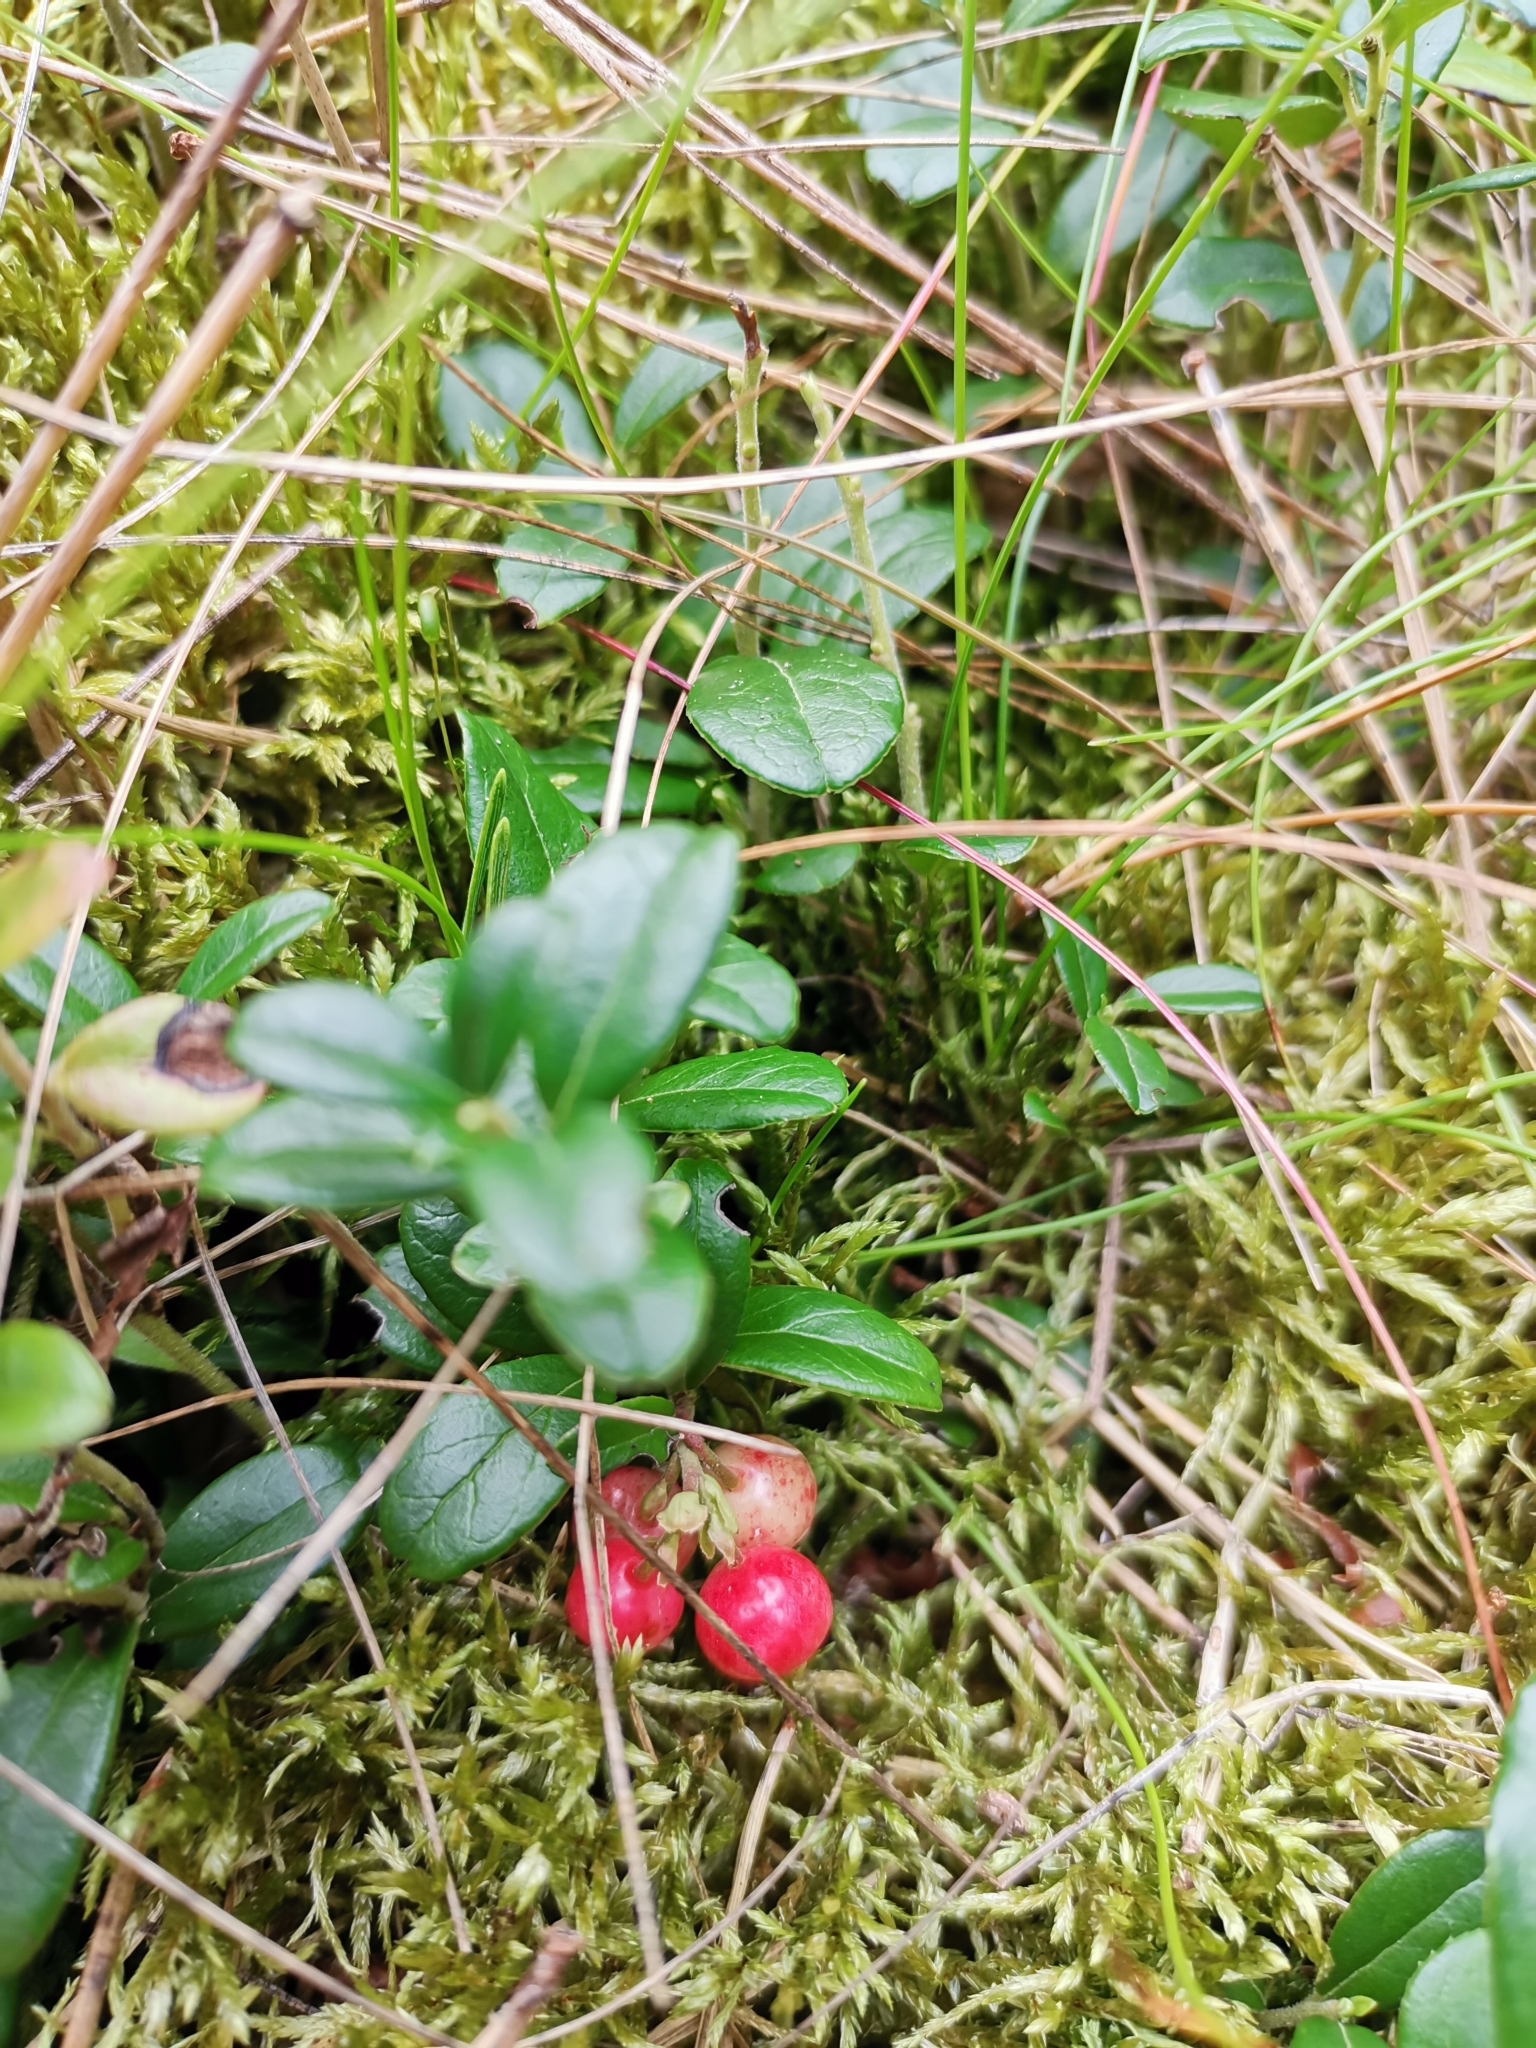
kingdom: Plantae
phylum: Tracheophyta
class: Magnoliopsida
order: Ericales
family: Ericaceae
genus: Vaccinium
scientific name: Vaccinium vitis-idaea
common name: Cowberry
